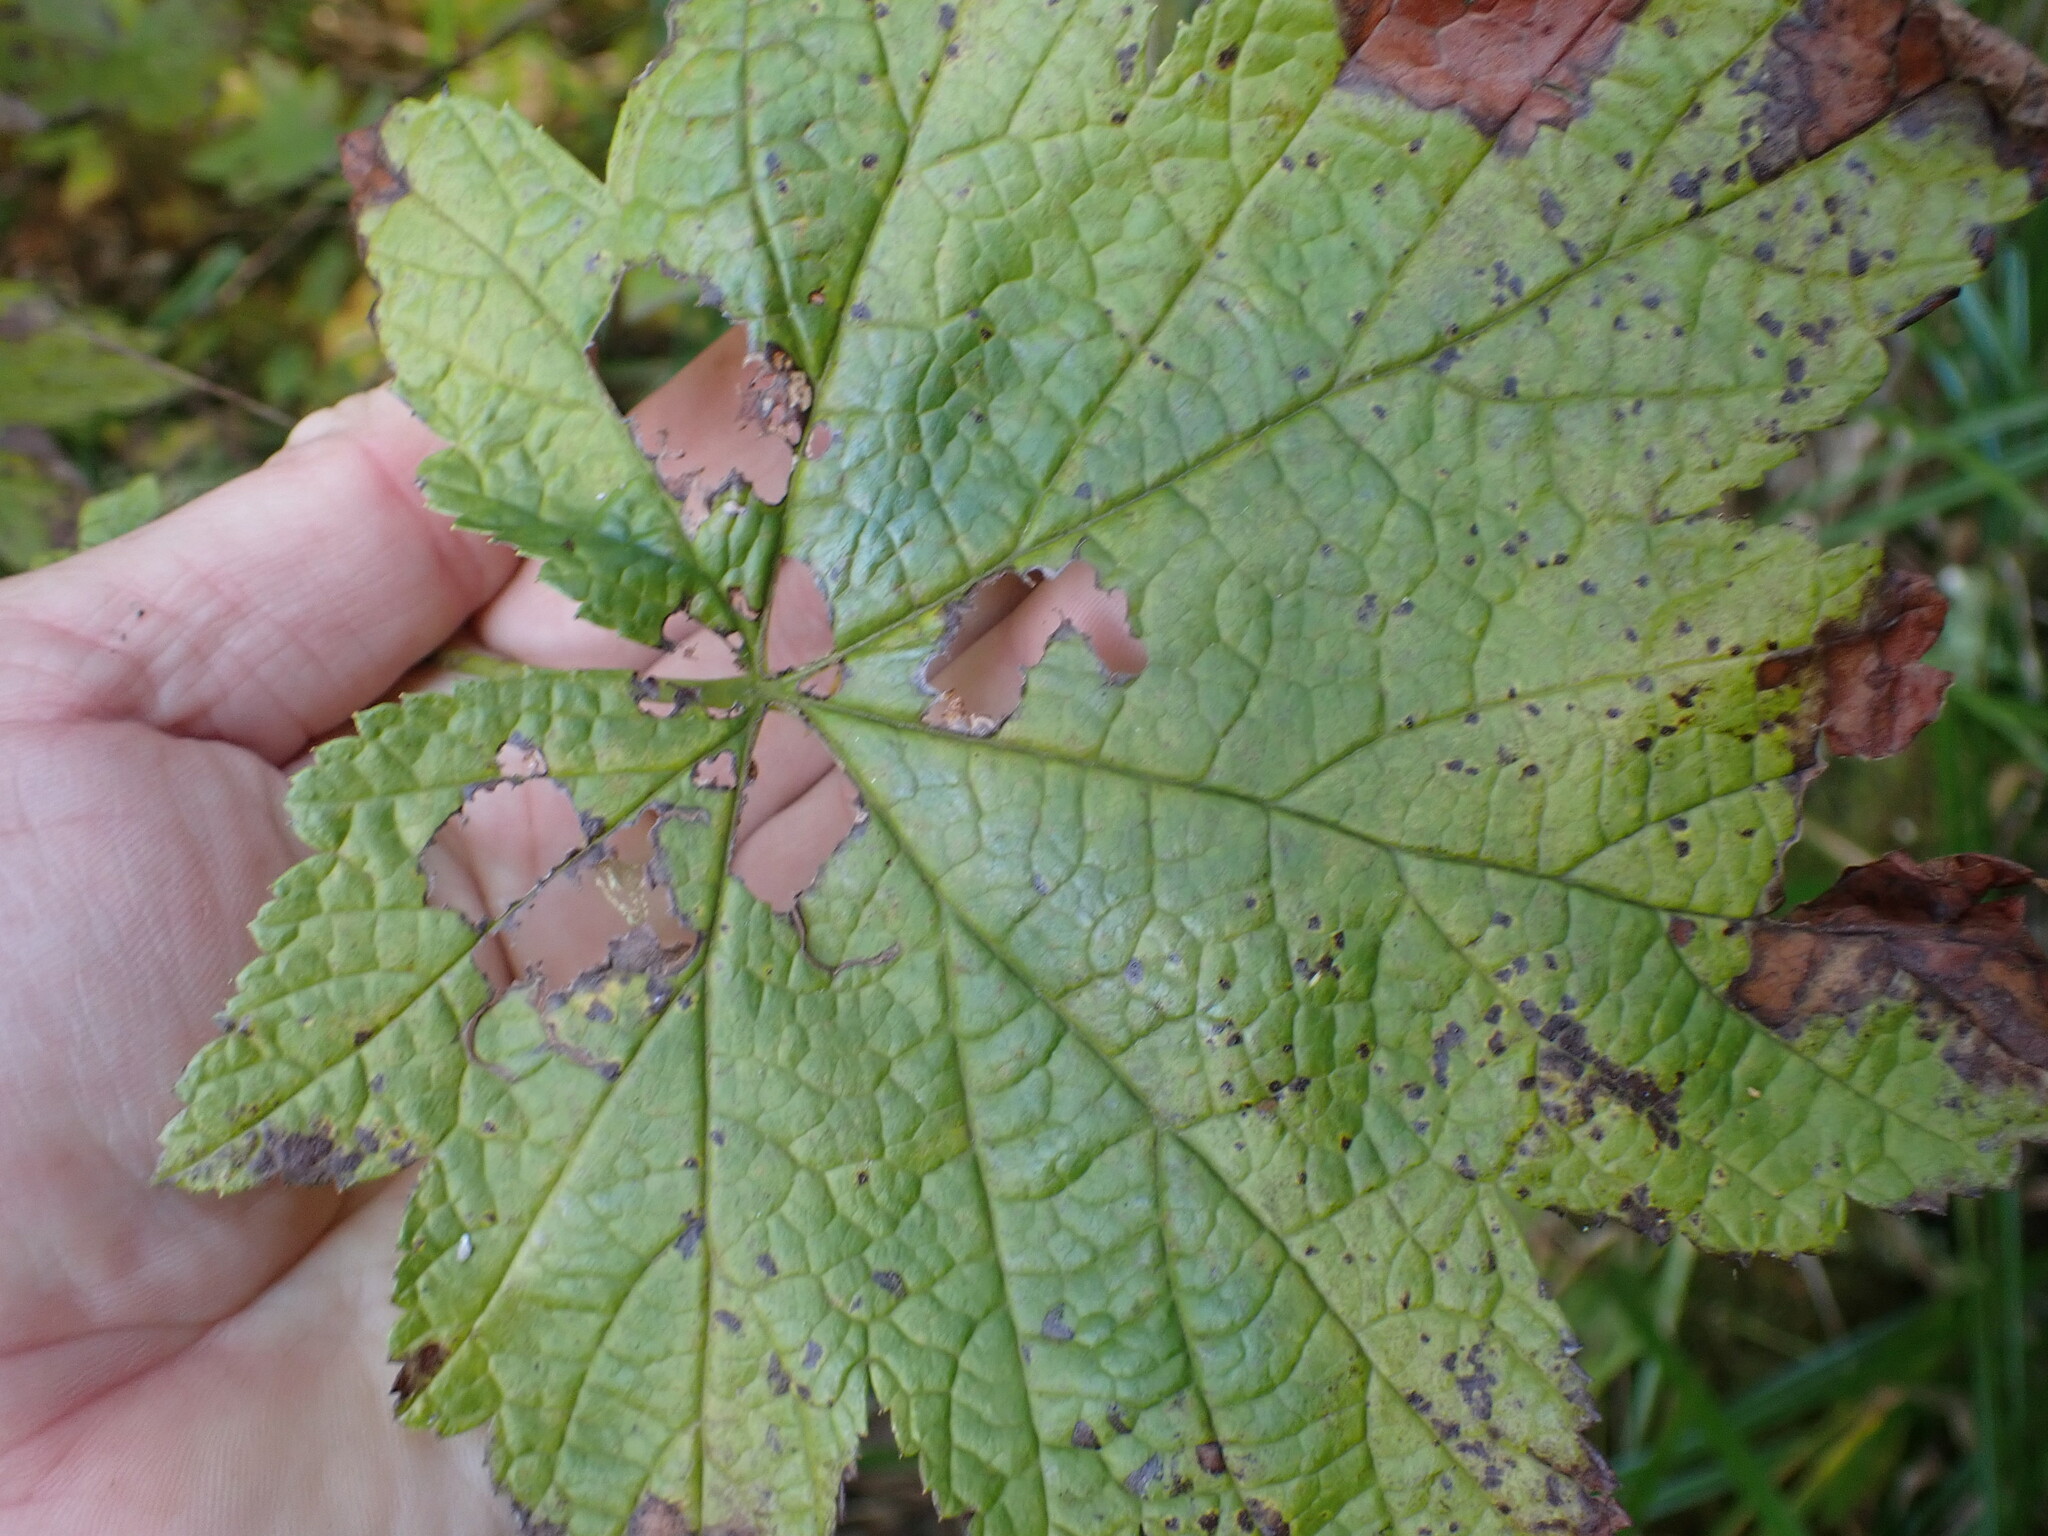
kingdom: Plantae
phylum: Tracheophyta
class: Magnoliopsida
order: Saxifragales
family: Grossulariaceae
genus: Ribes
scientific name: Ribes bracteosum
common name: California black currant
